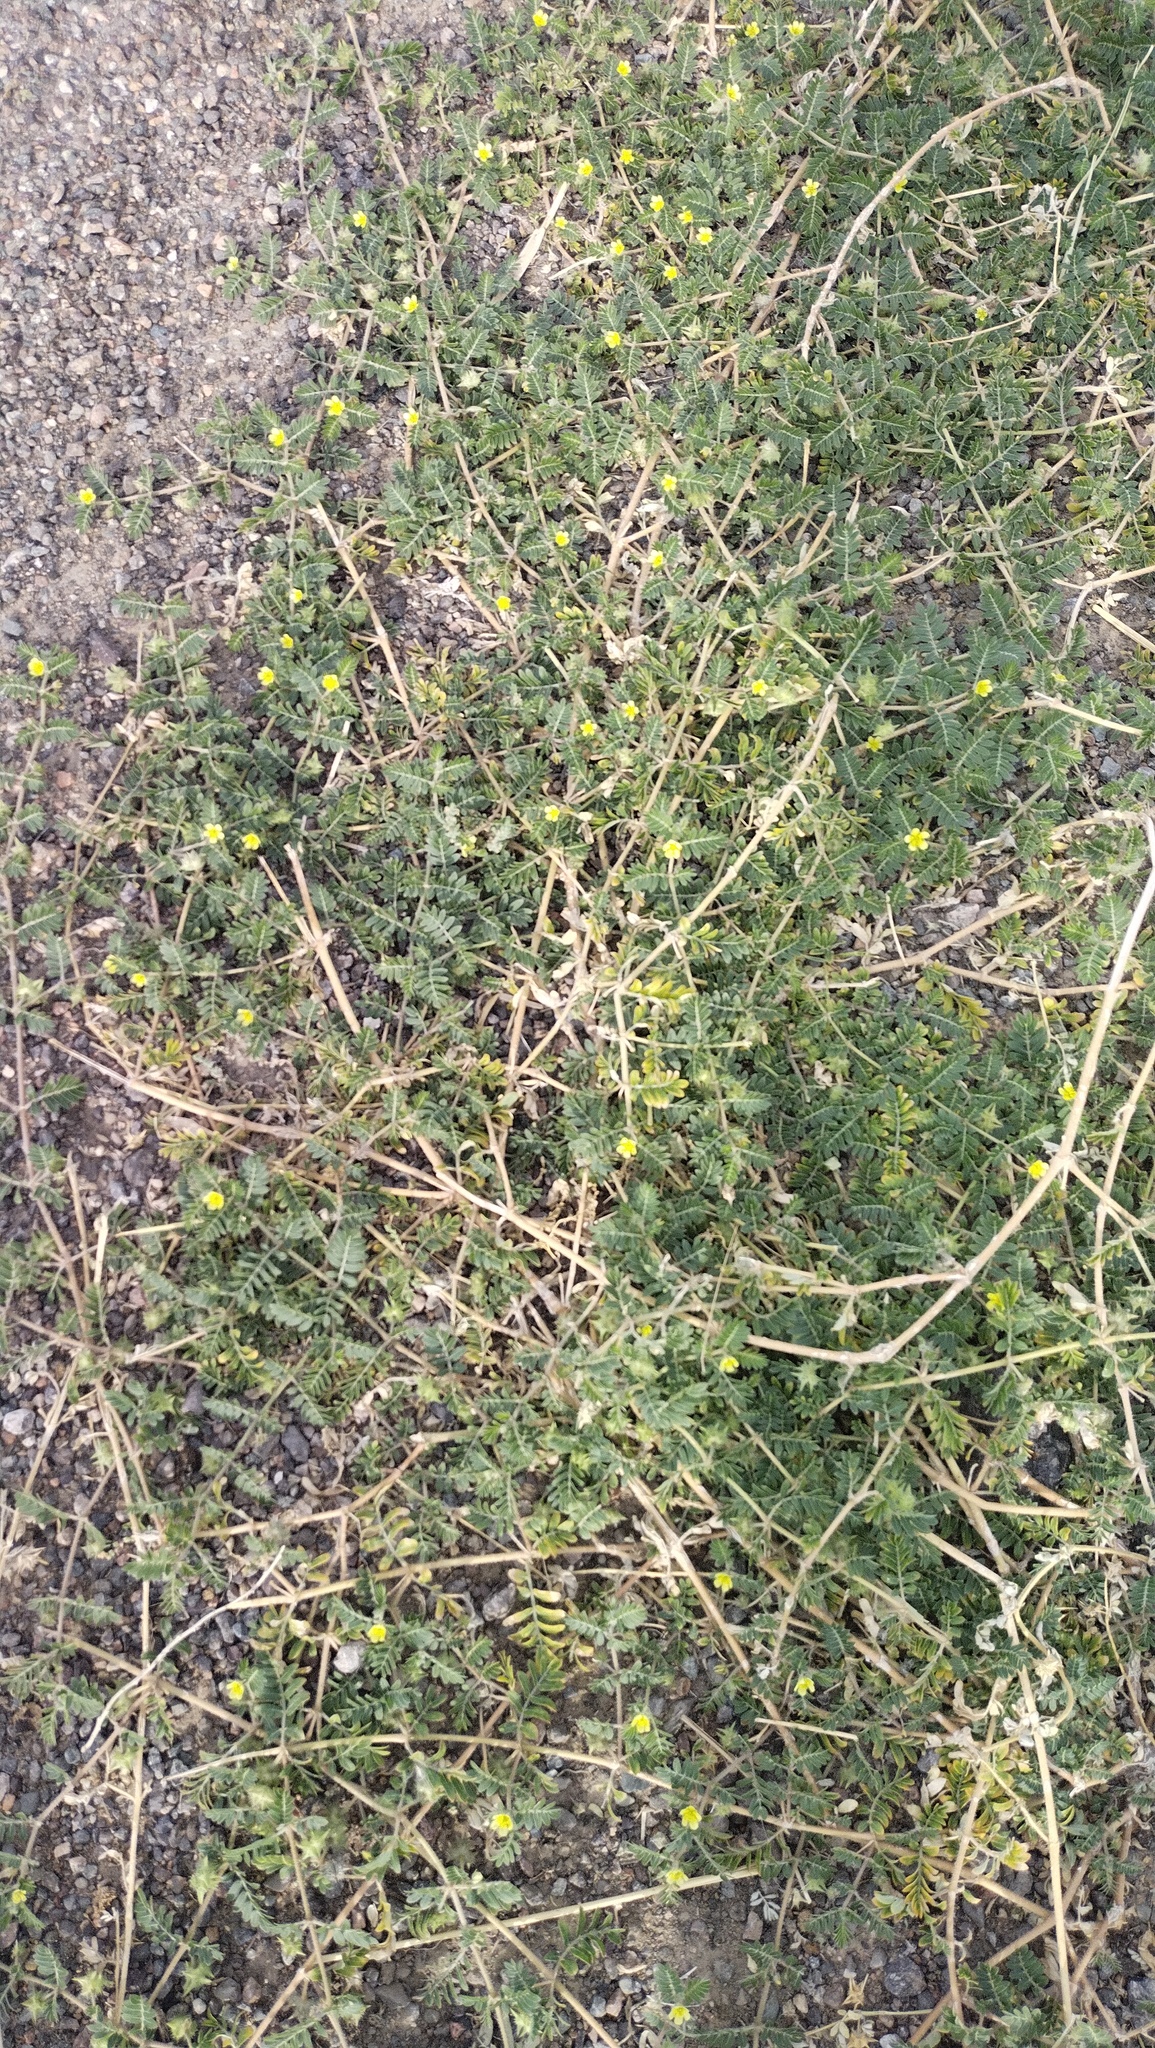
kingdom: Plantae
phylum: Tracheophyta
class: Magnoliopsida
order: Zygophyllales
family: Zygophyllaceae
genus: Tribulus
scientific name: Tribulus terrestris
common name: Puncturevine
